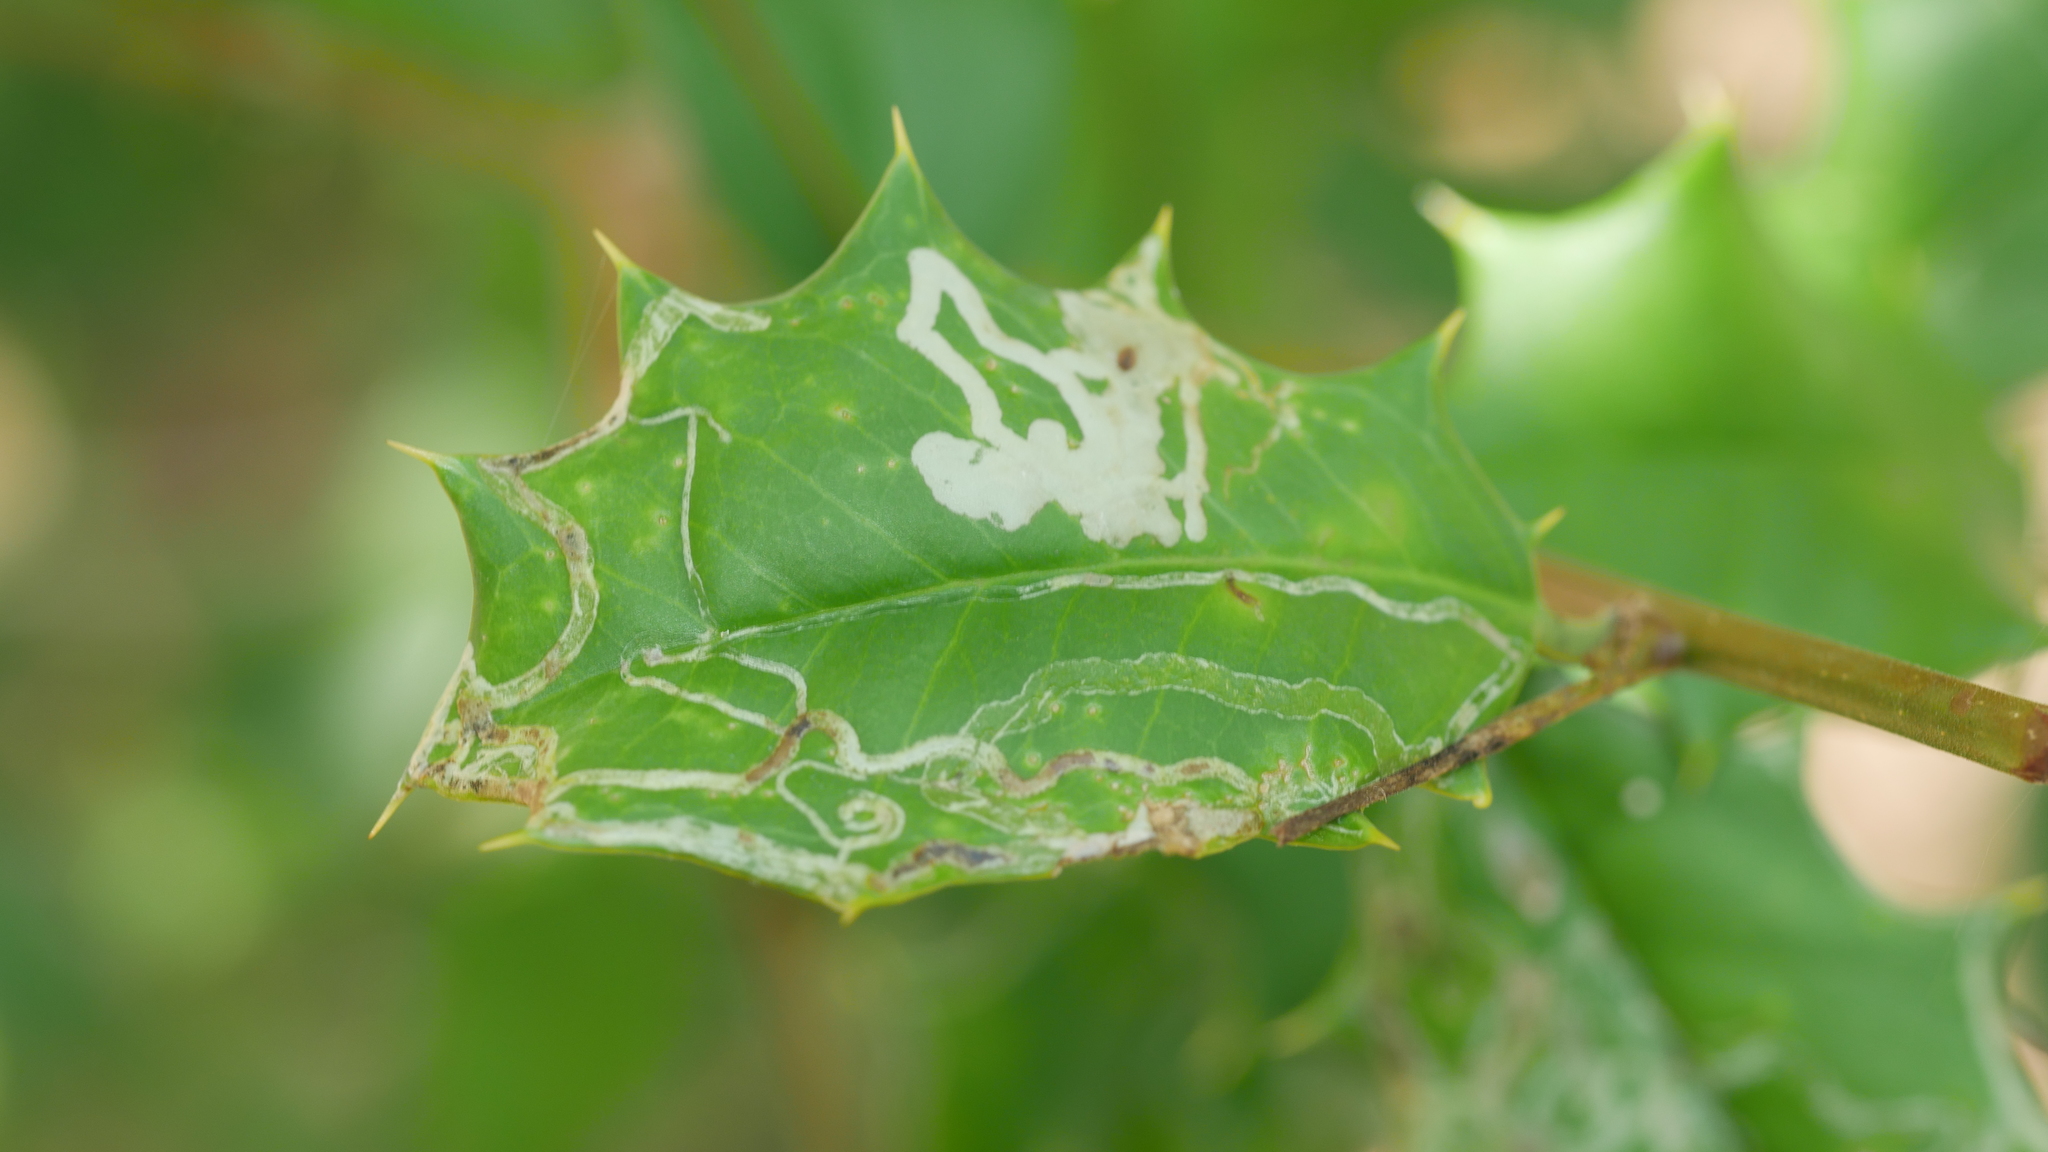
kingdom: Animalia
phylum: Arthropoda
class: Insecta
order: Diptera
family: Agromyzidae
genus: Phytomyza
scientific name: Phytomyza opacae
